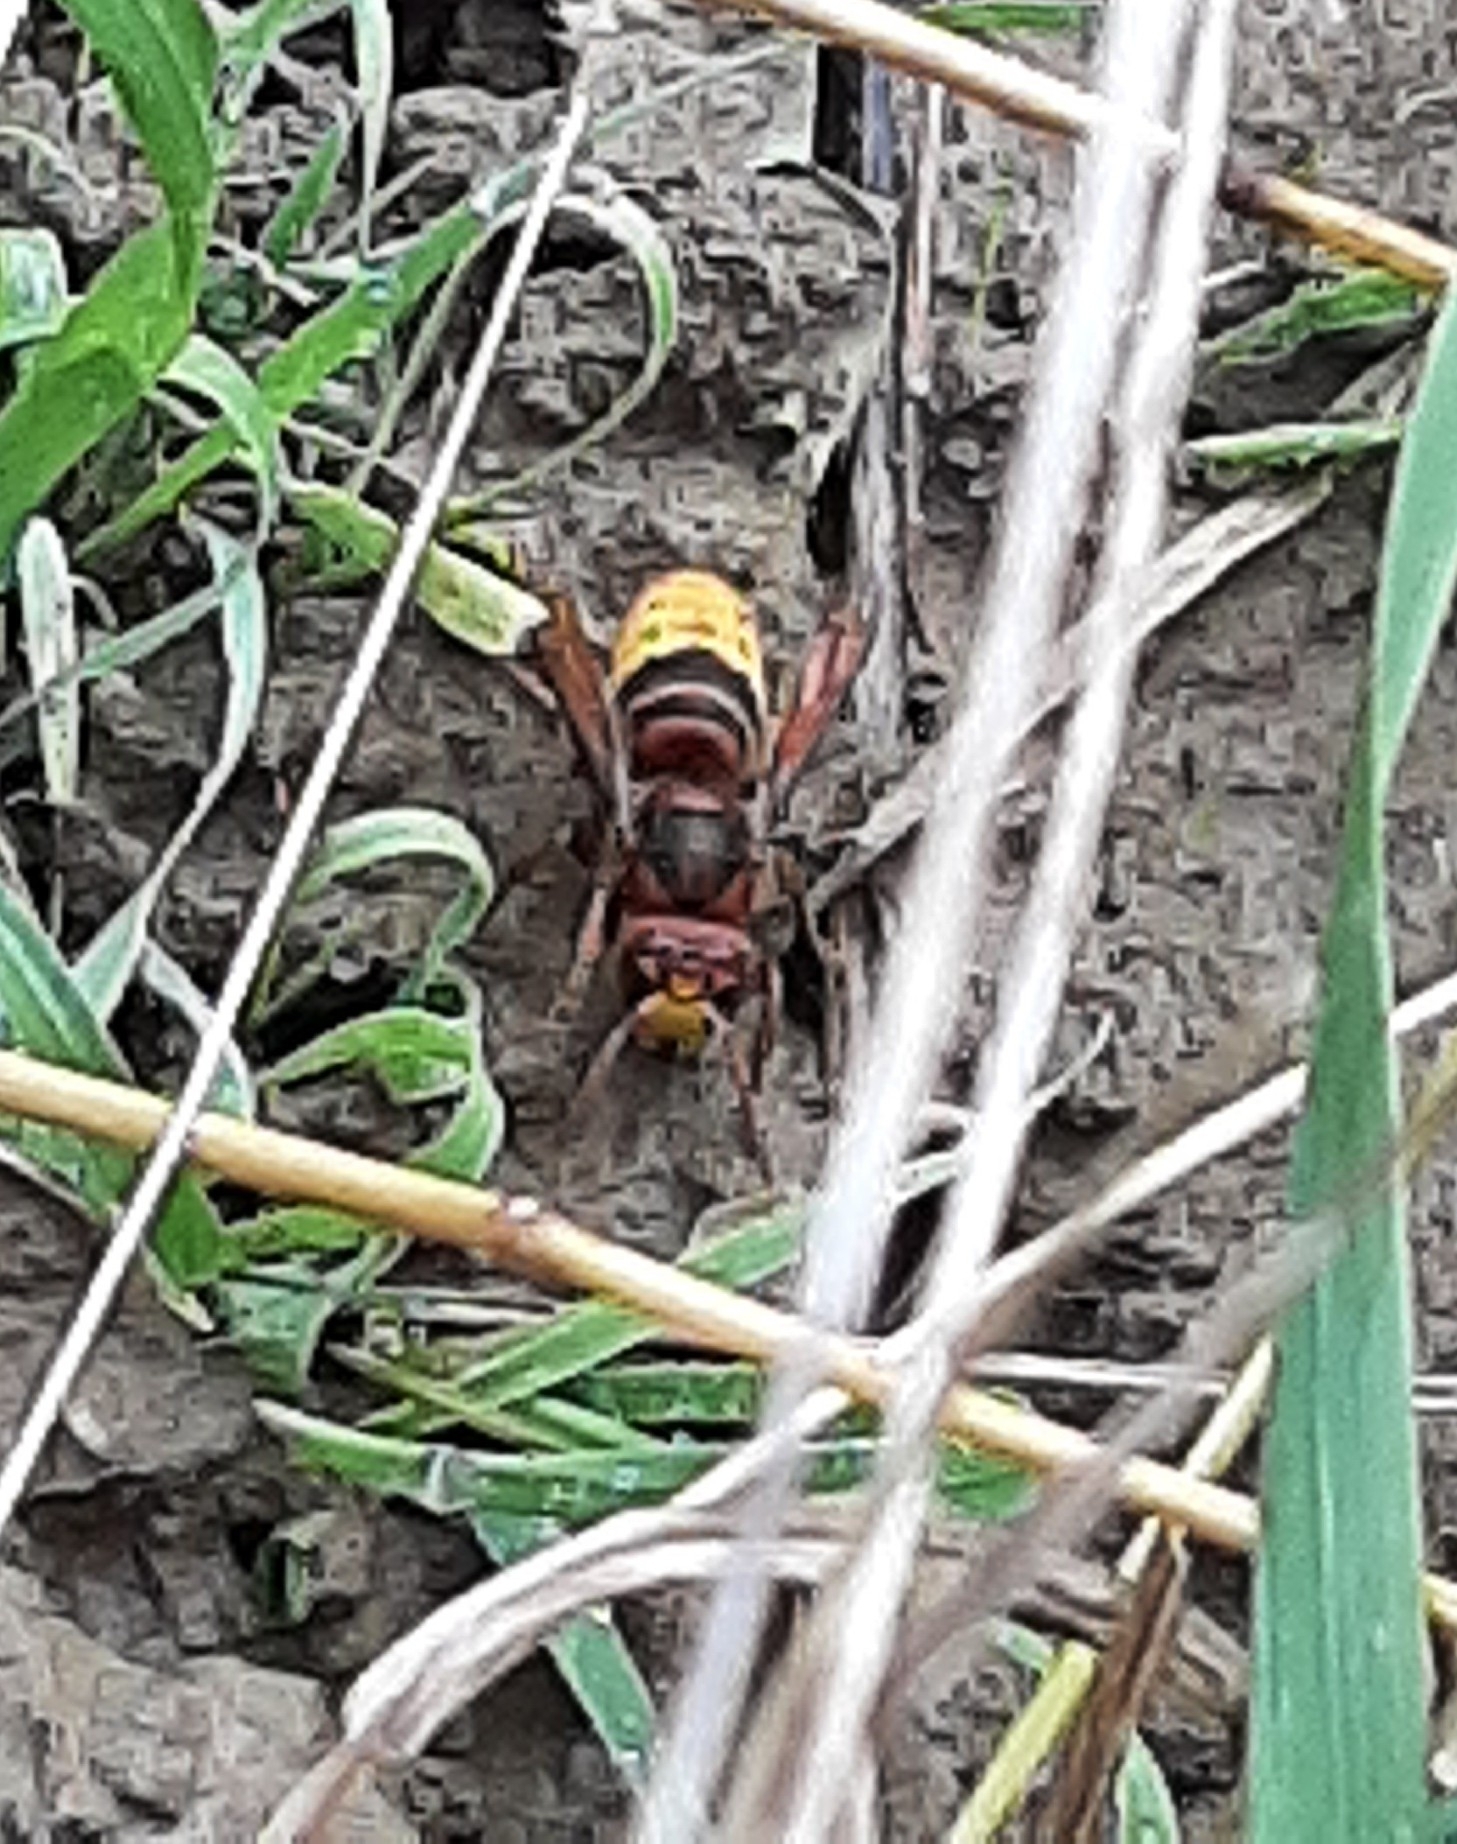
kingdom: Animalia
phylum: Arthropoda
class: Insecta
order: Hymenoptera
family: Vespidae
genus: Vespa
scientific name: Vespa crabro
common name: Hornet
